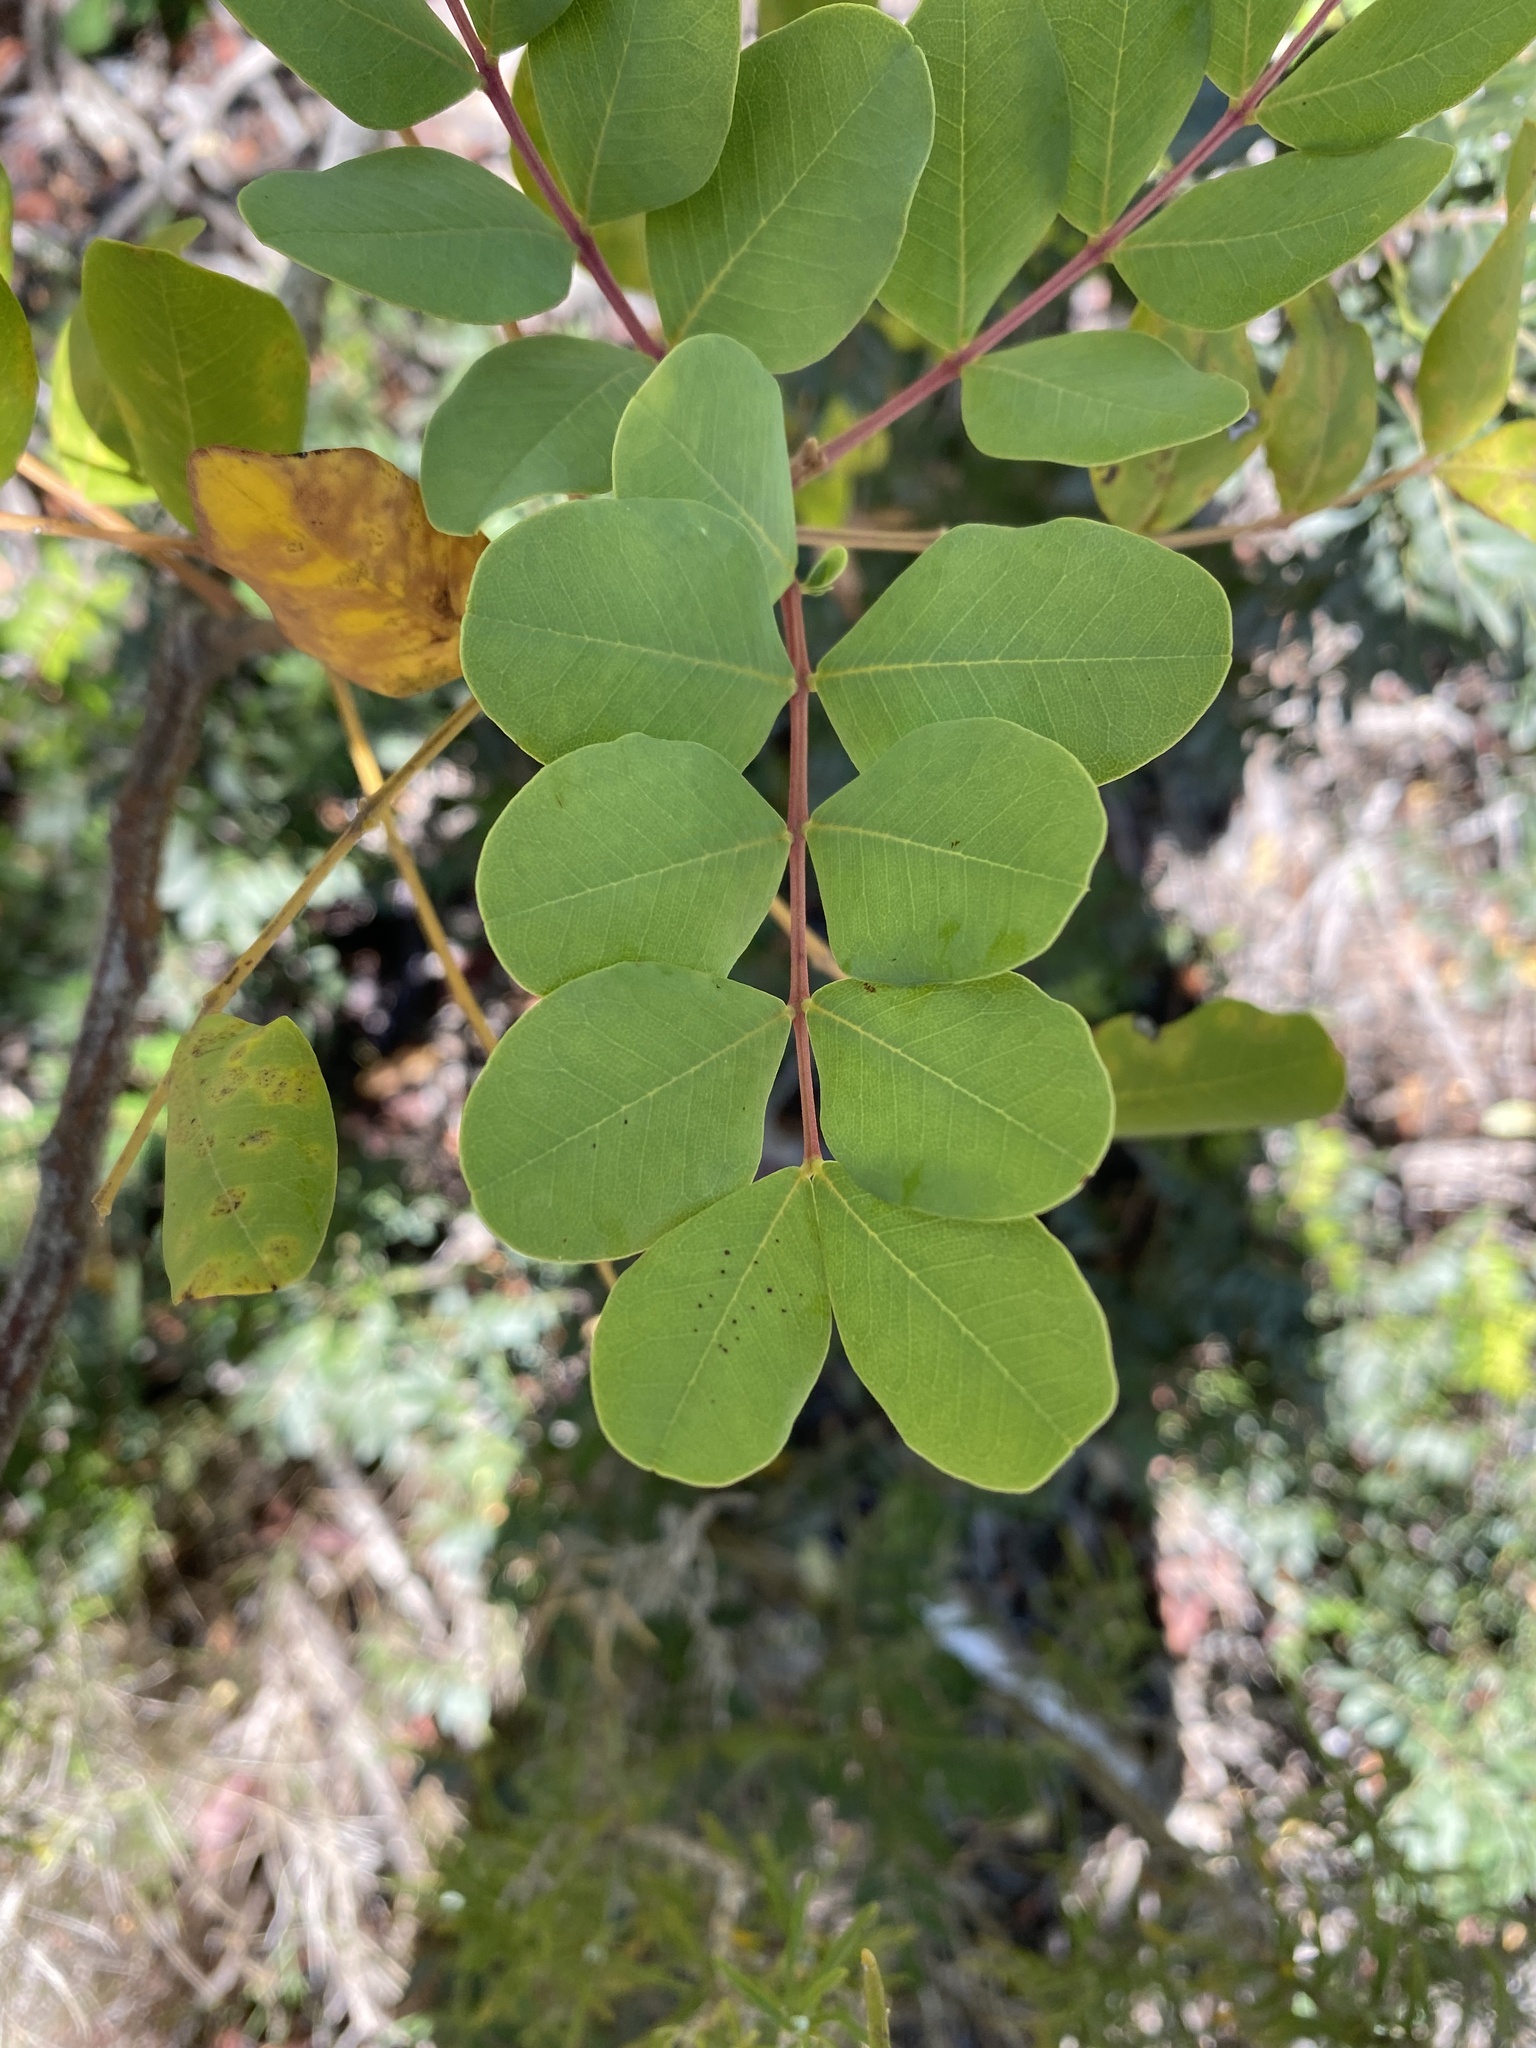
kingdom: Plantae
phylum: Tracheophyta
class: Magnoliopsida
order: Fabales
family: Fabaceae
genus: Ceratonia
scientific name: Ceratonia siliqua
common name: Carob
